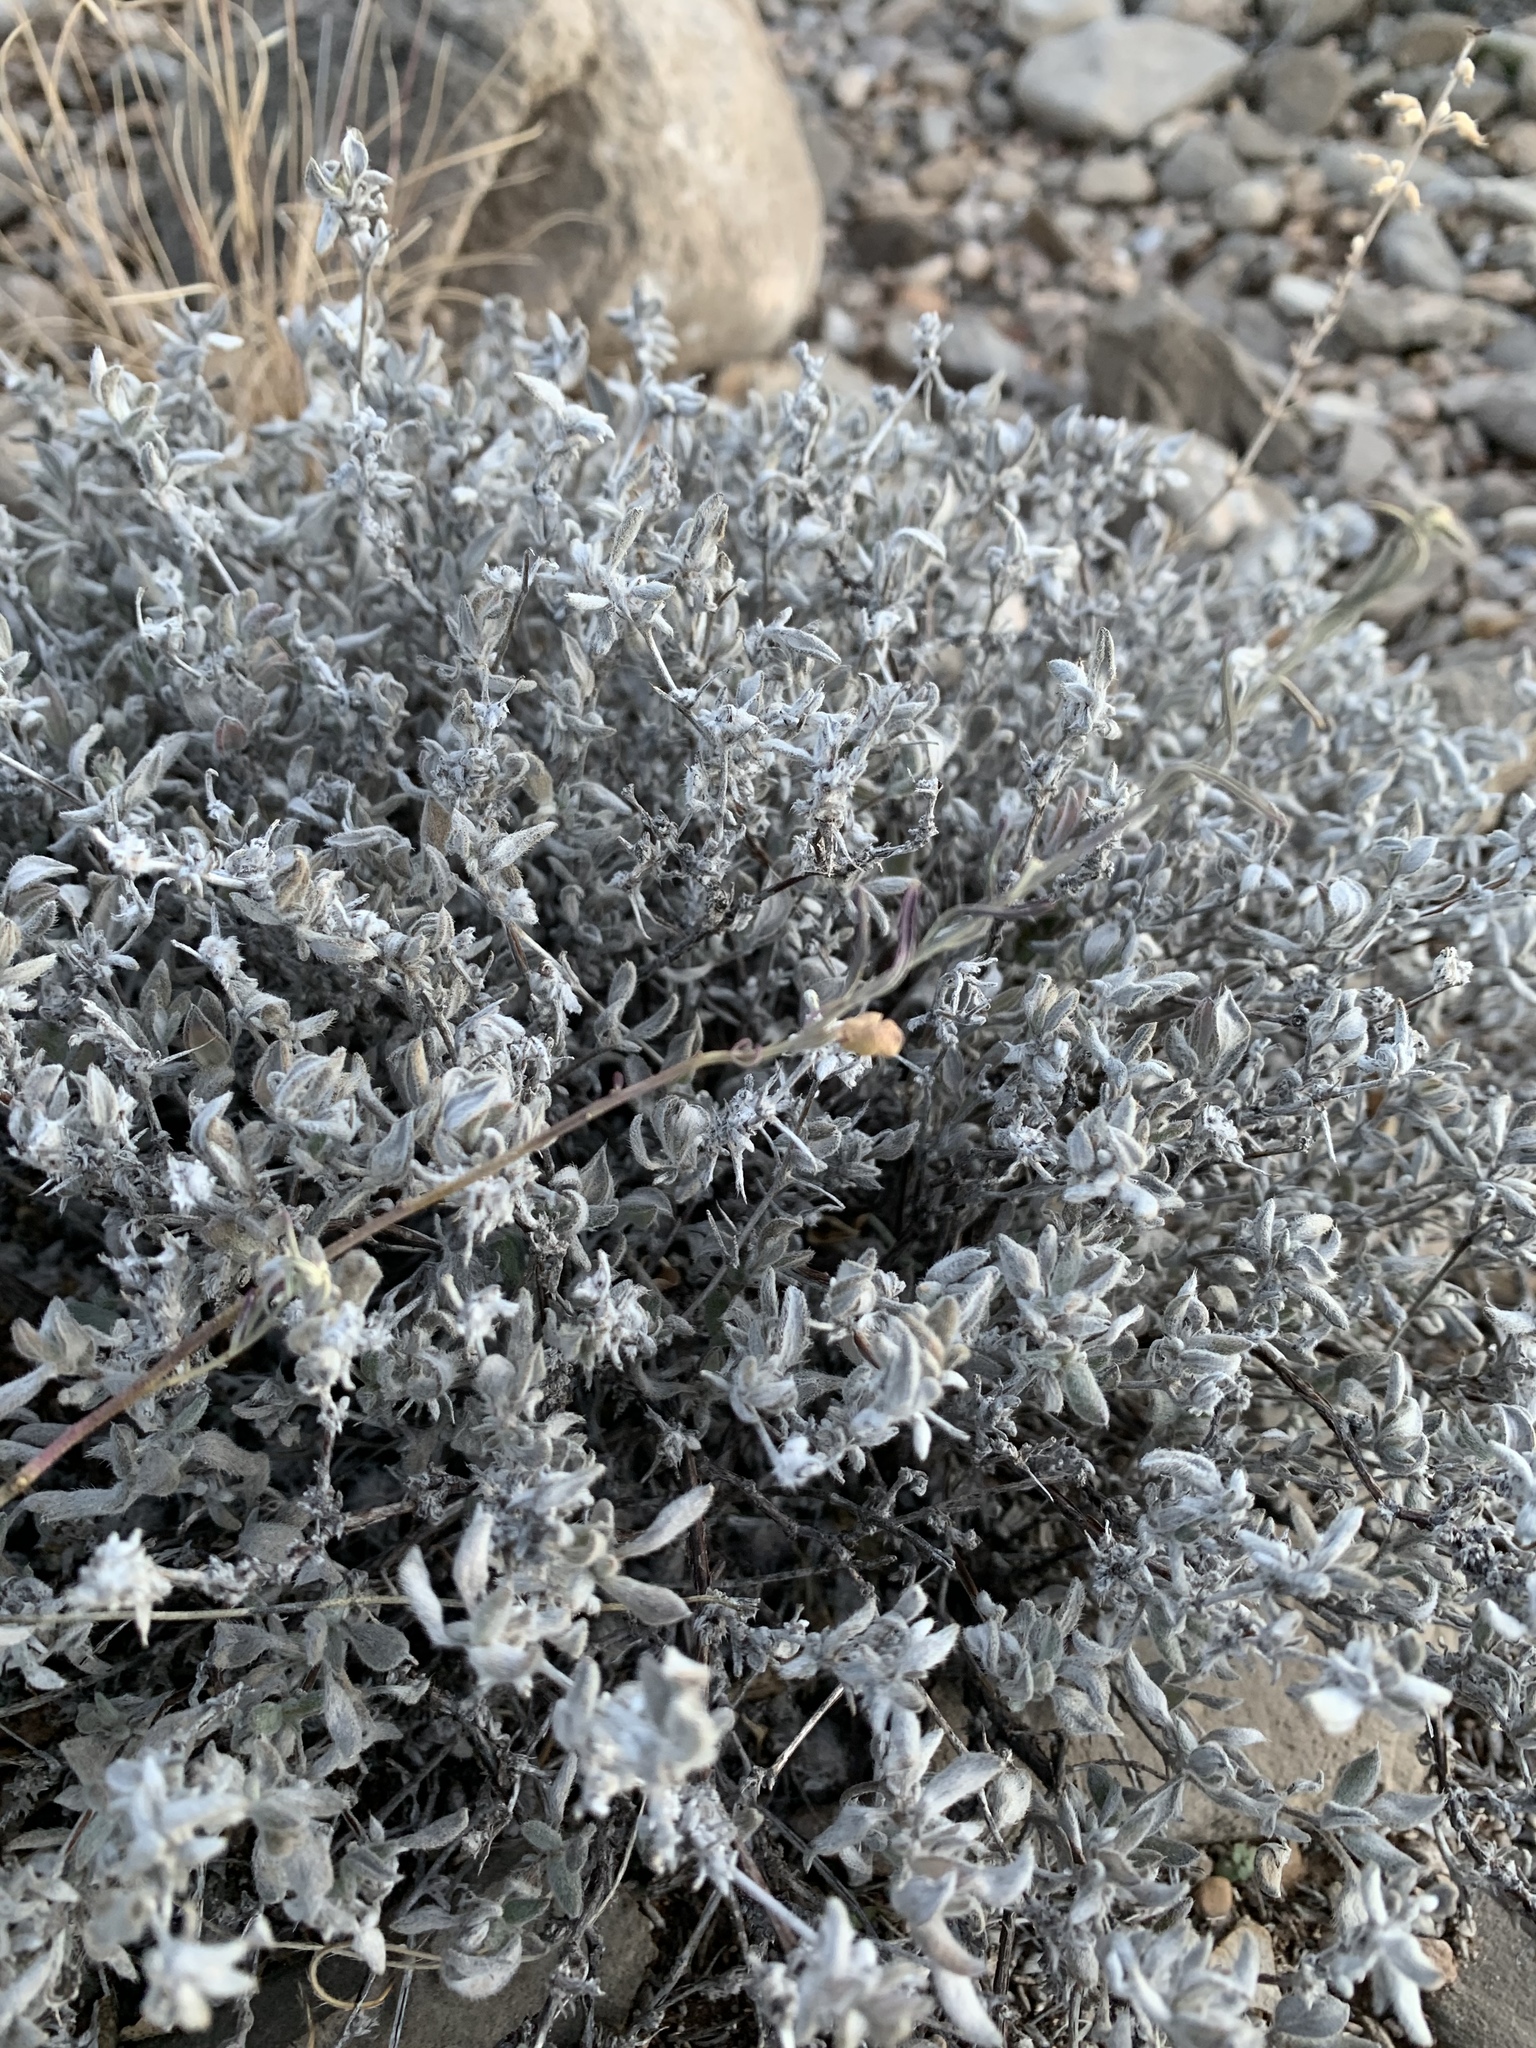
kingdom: Plantae
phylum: Tracheophyta
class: Magnoliopsida
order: Boraginales
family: Ehretiaceae
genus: Tiquilia
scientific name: Tiquilia canescens
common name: Hairy tiquilia
